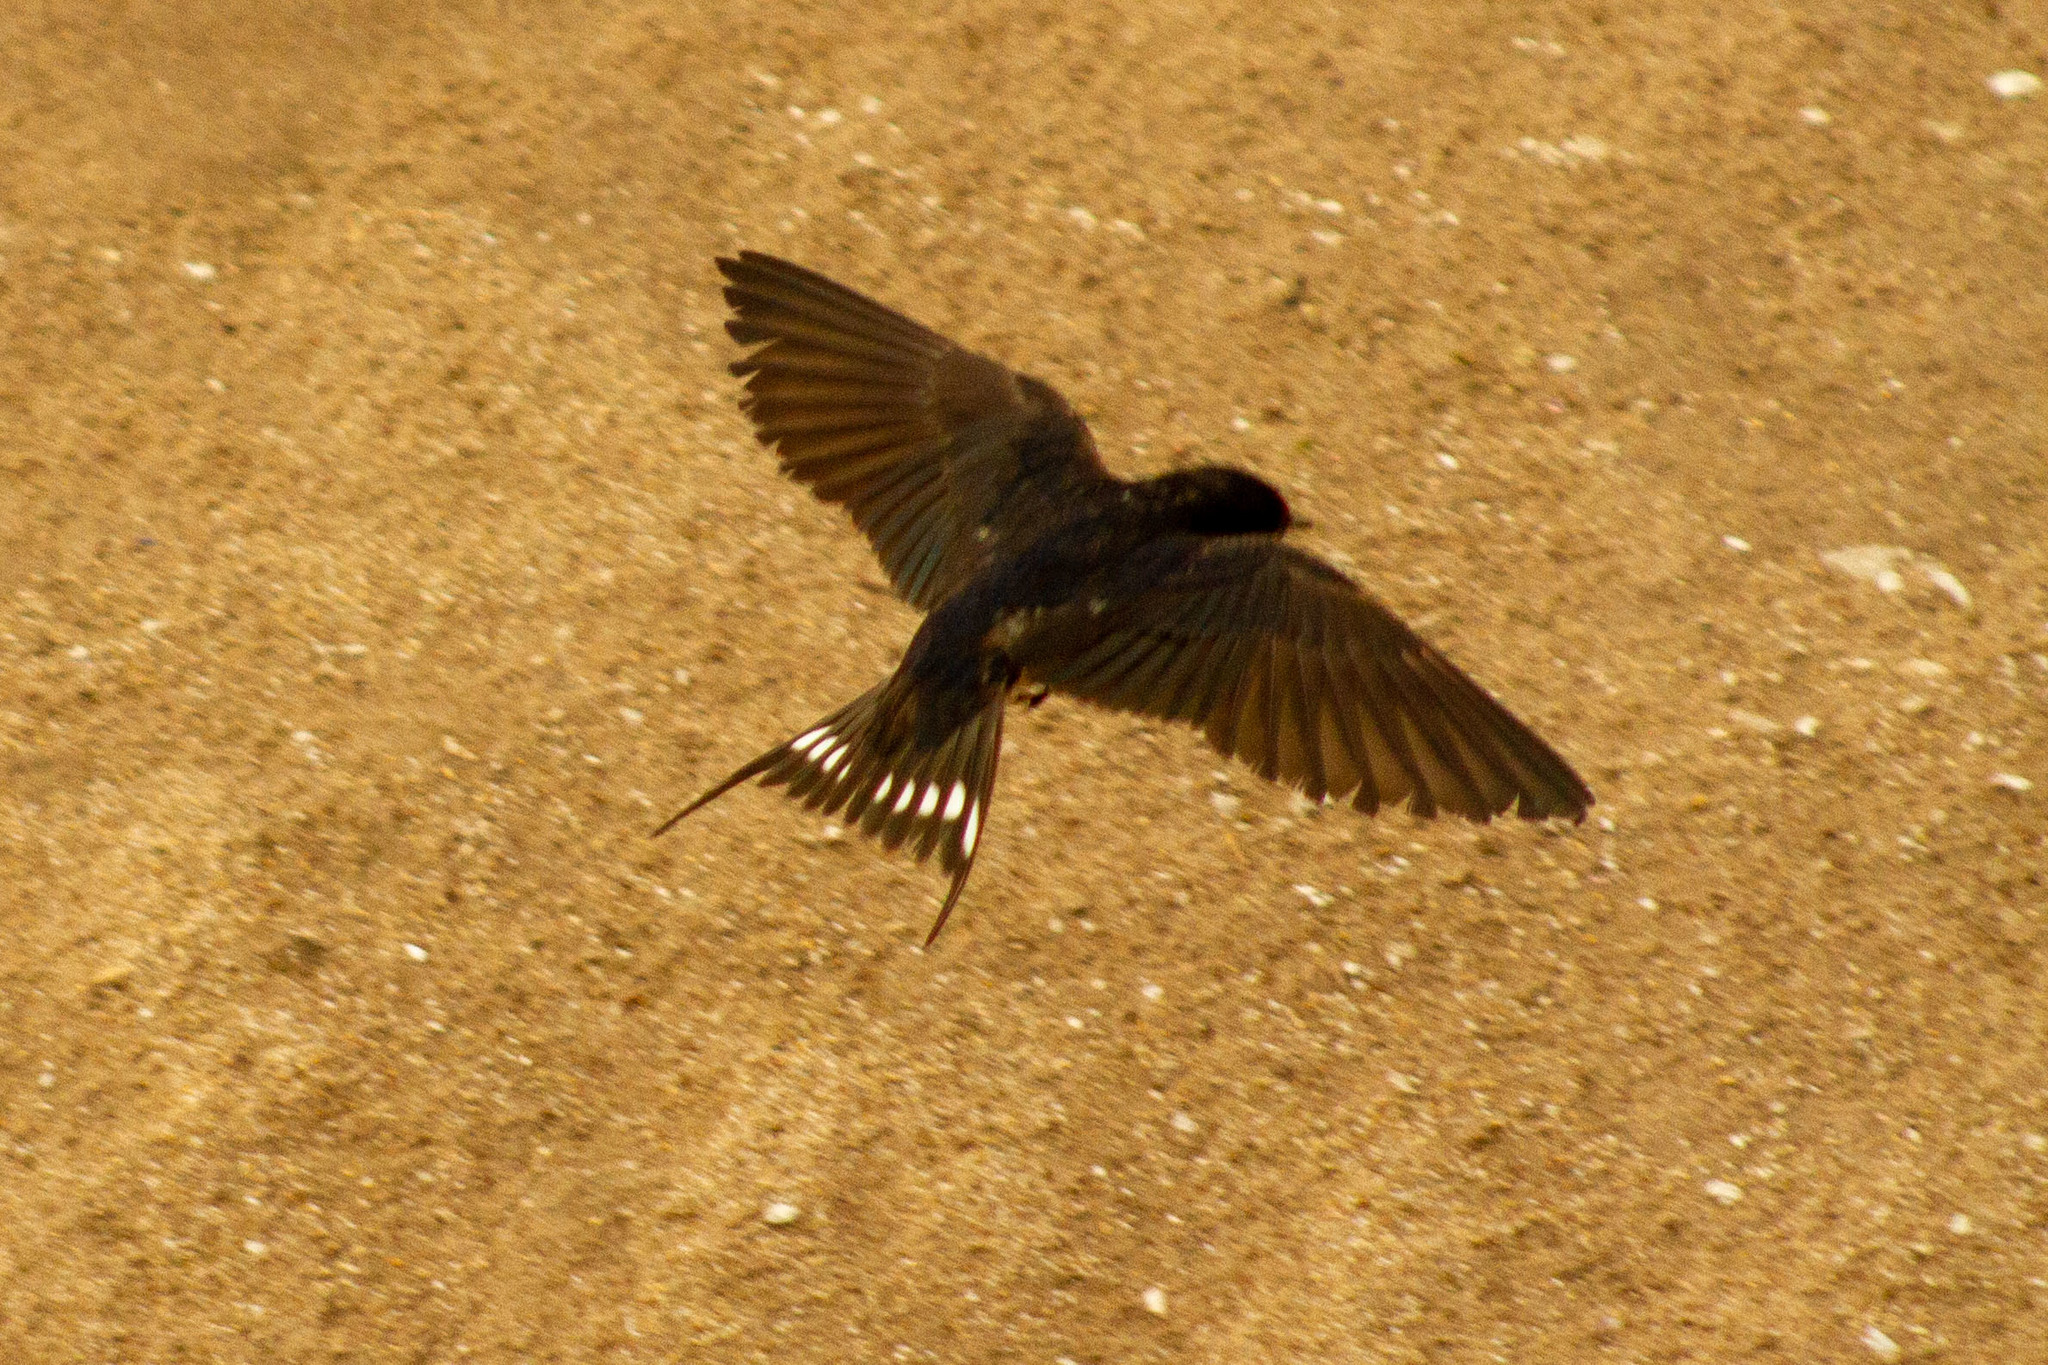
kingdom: Animalia
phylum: Chordata
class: Aves
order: Passeriformes
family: Hirundinidae
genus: Hirundo
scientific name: Hirundo rustica
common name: Barn swallow
